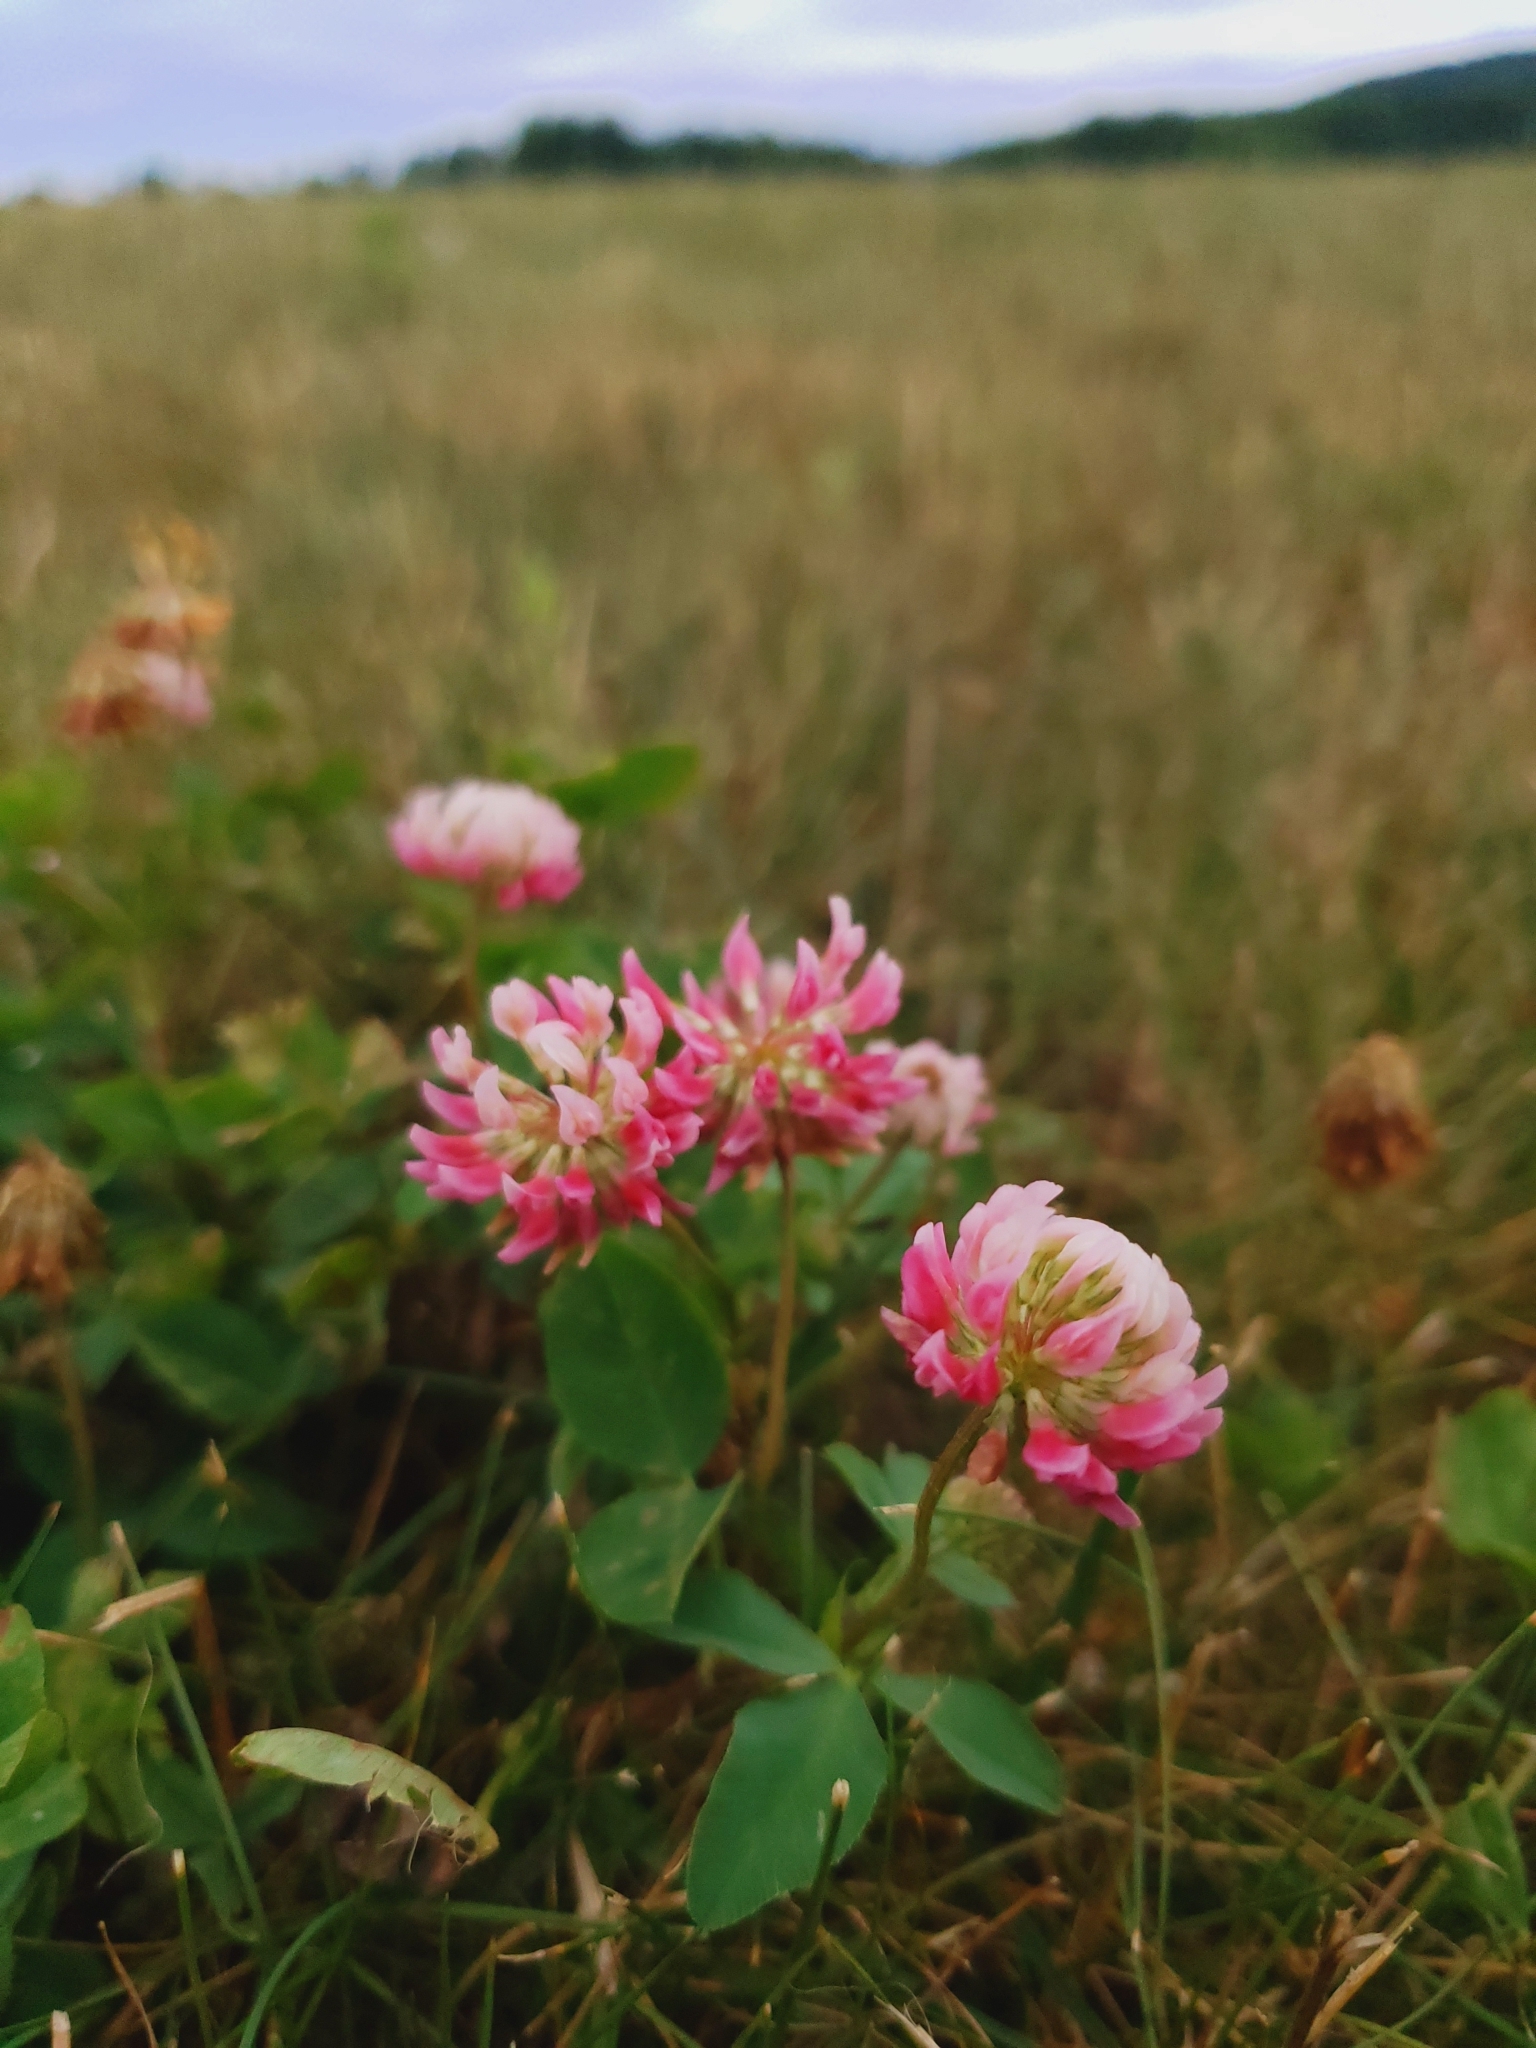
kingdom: Plantae
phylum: Tracheophyta
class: Magnoliopsida
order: Fabales
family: Fabaceae
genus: Trifolium
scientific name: Trifolium hybridum
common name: Alsike clover
